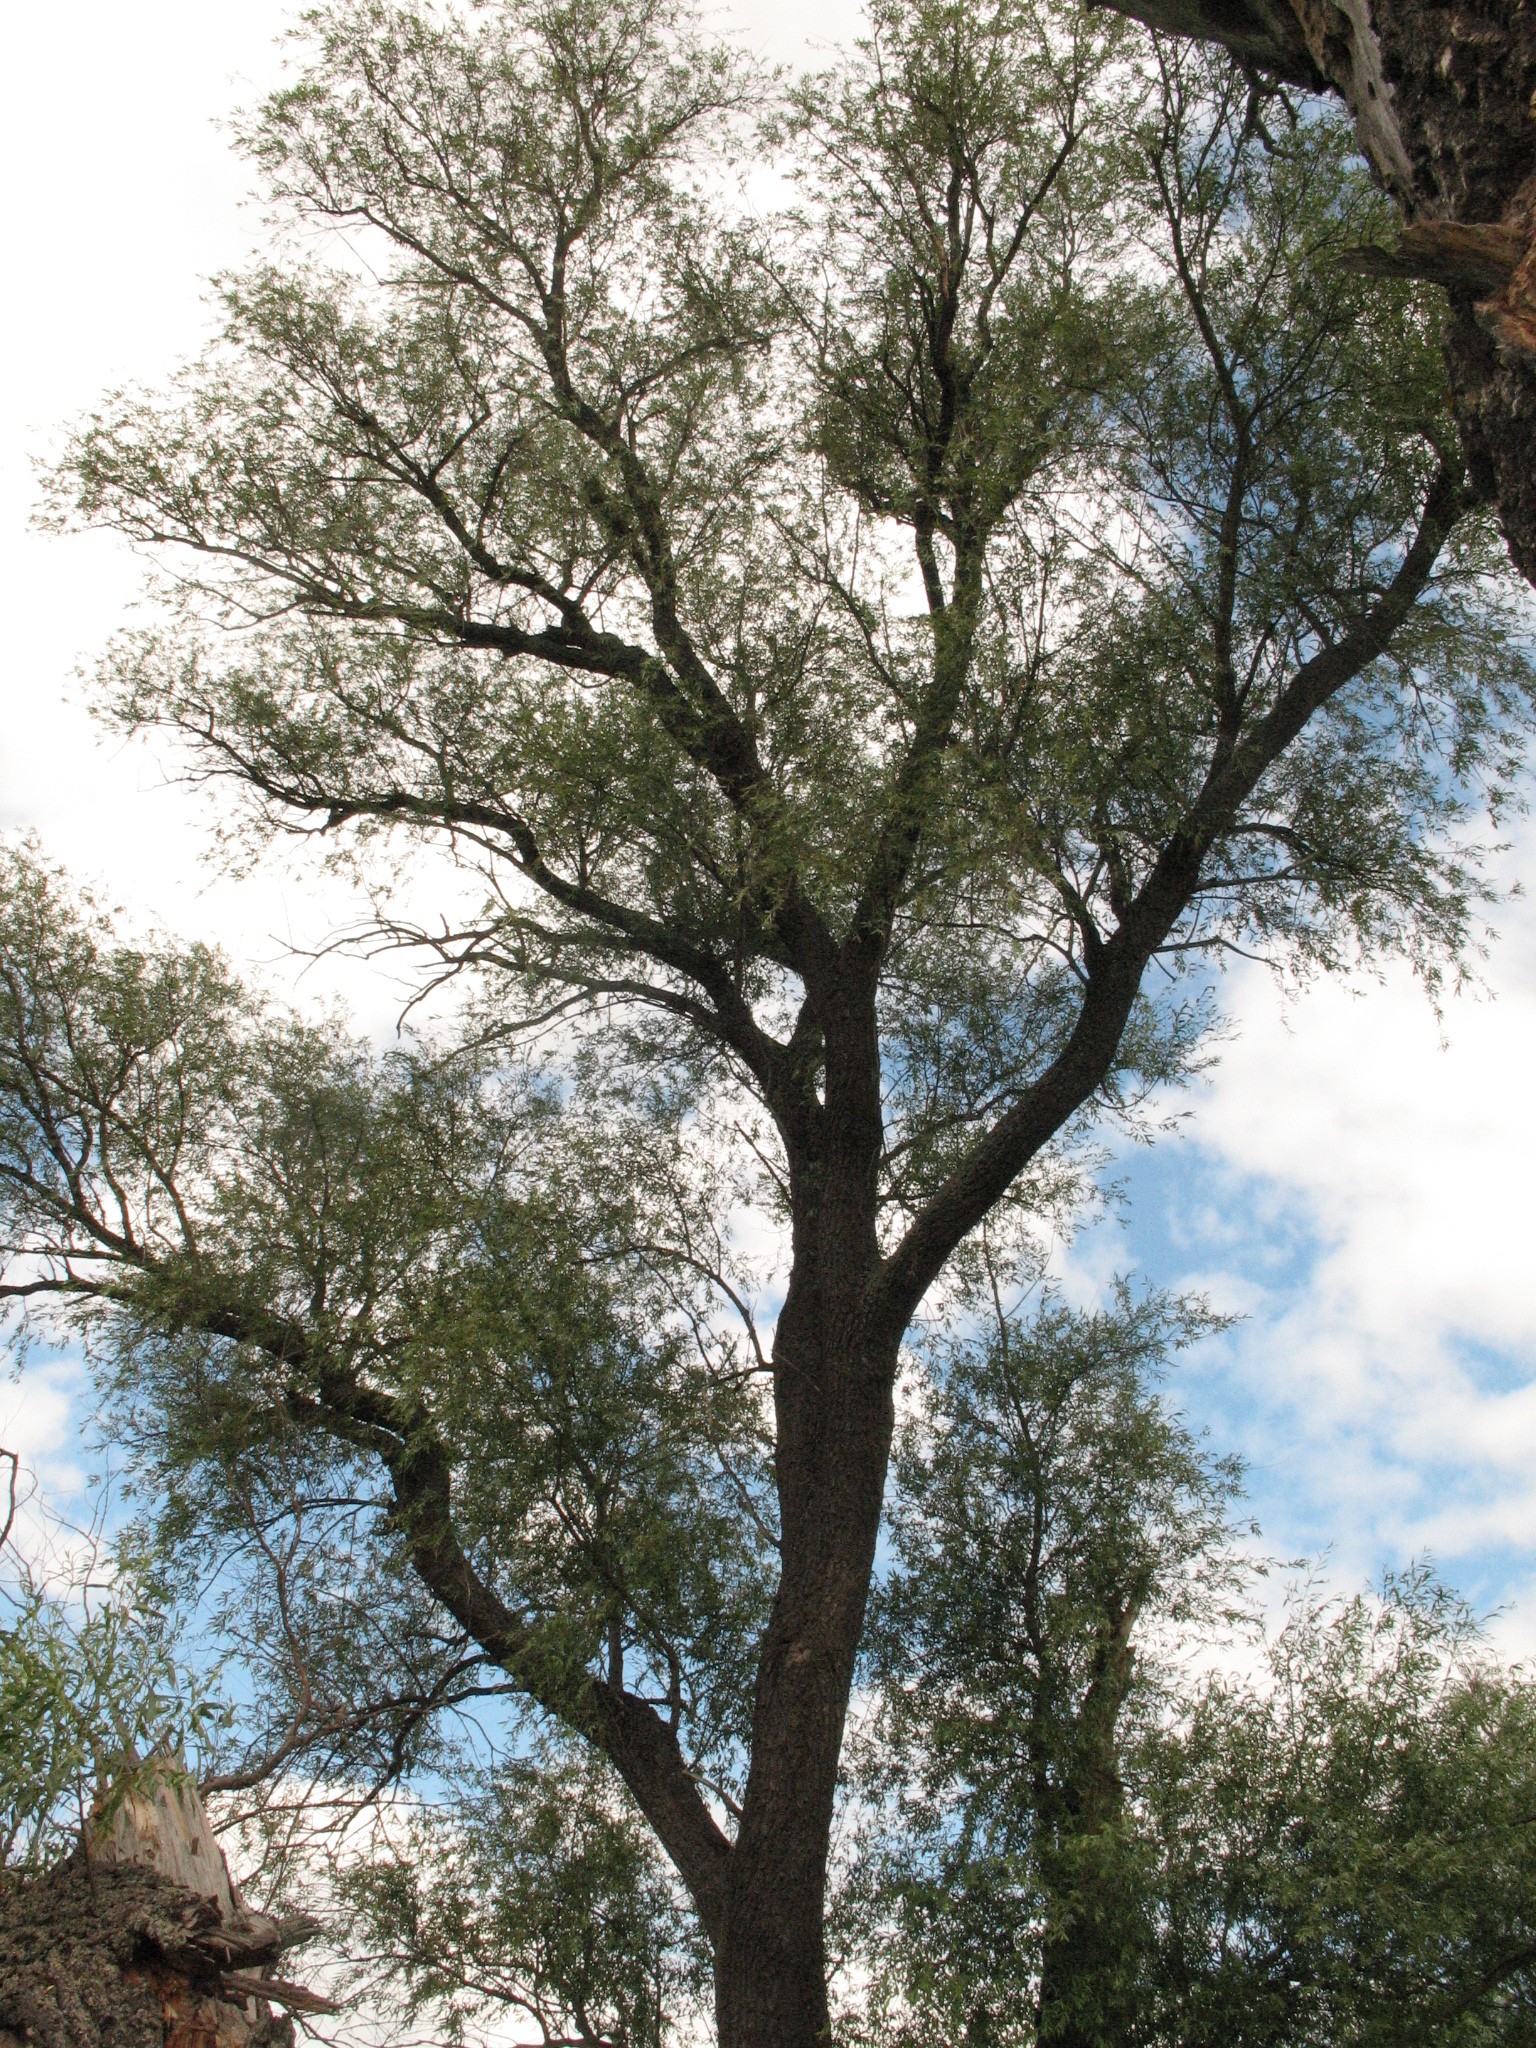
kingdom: Plantae
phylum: Tracheophyta
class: Magnoliopsida
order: Malpighiales
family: Salicaceae
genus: Salix
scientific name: Salix alba
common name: White willow
